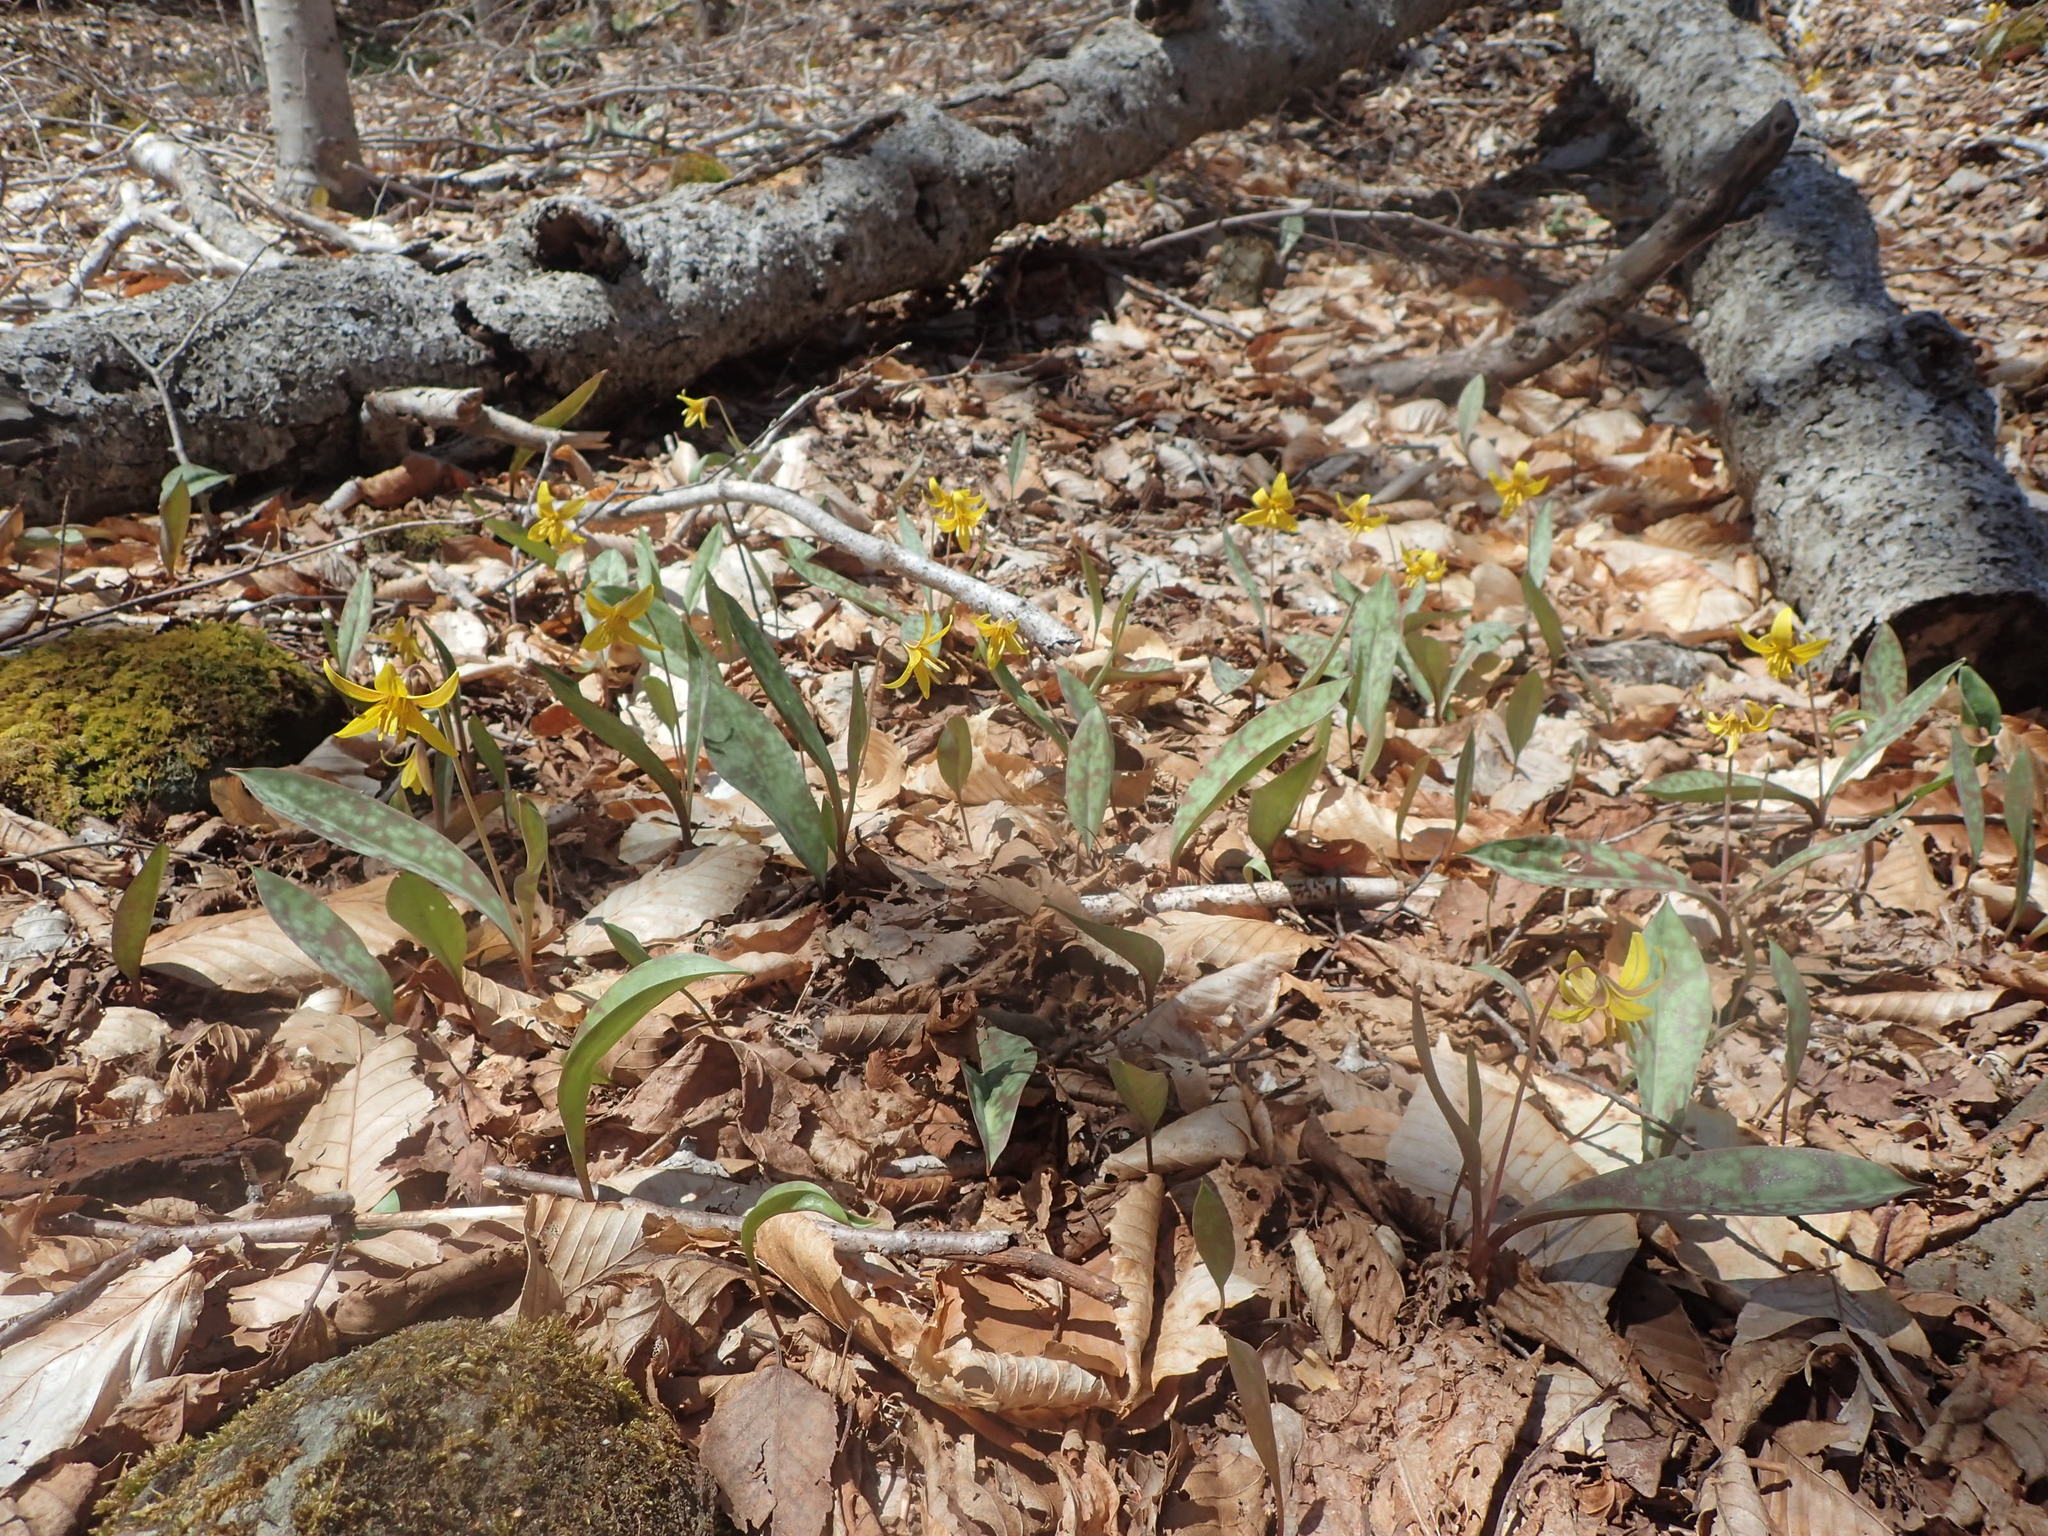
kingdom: Plantae
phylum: Tracheophyta
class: Liliopsida
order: Liliales
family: Liliaceae
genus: Erythronium
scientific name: Erythronium americanum
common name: Yellow adder's-tongue
